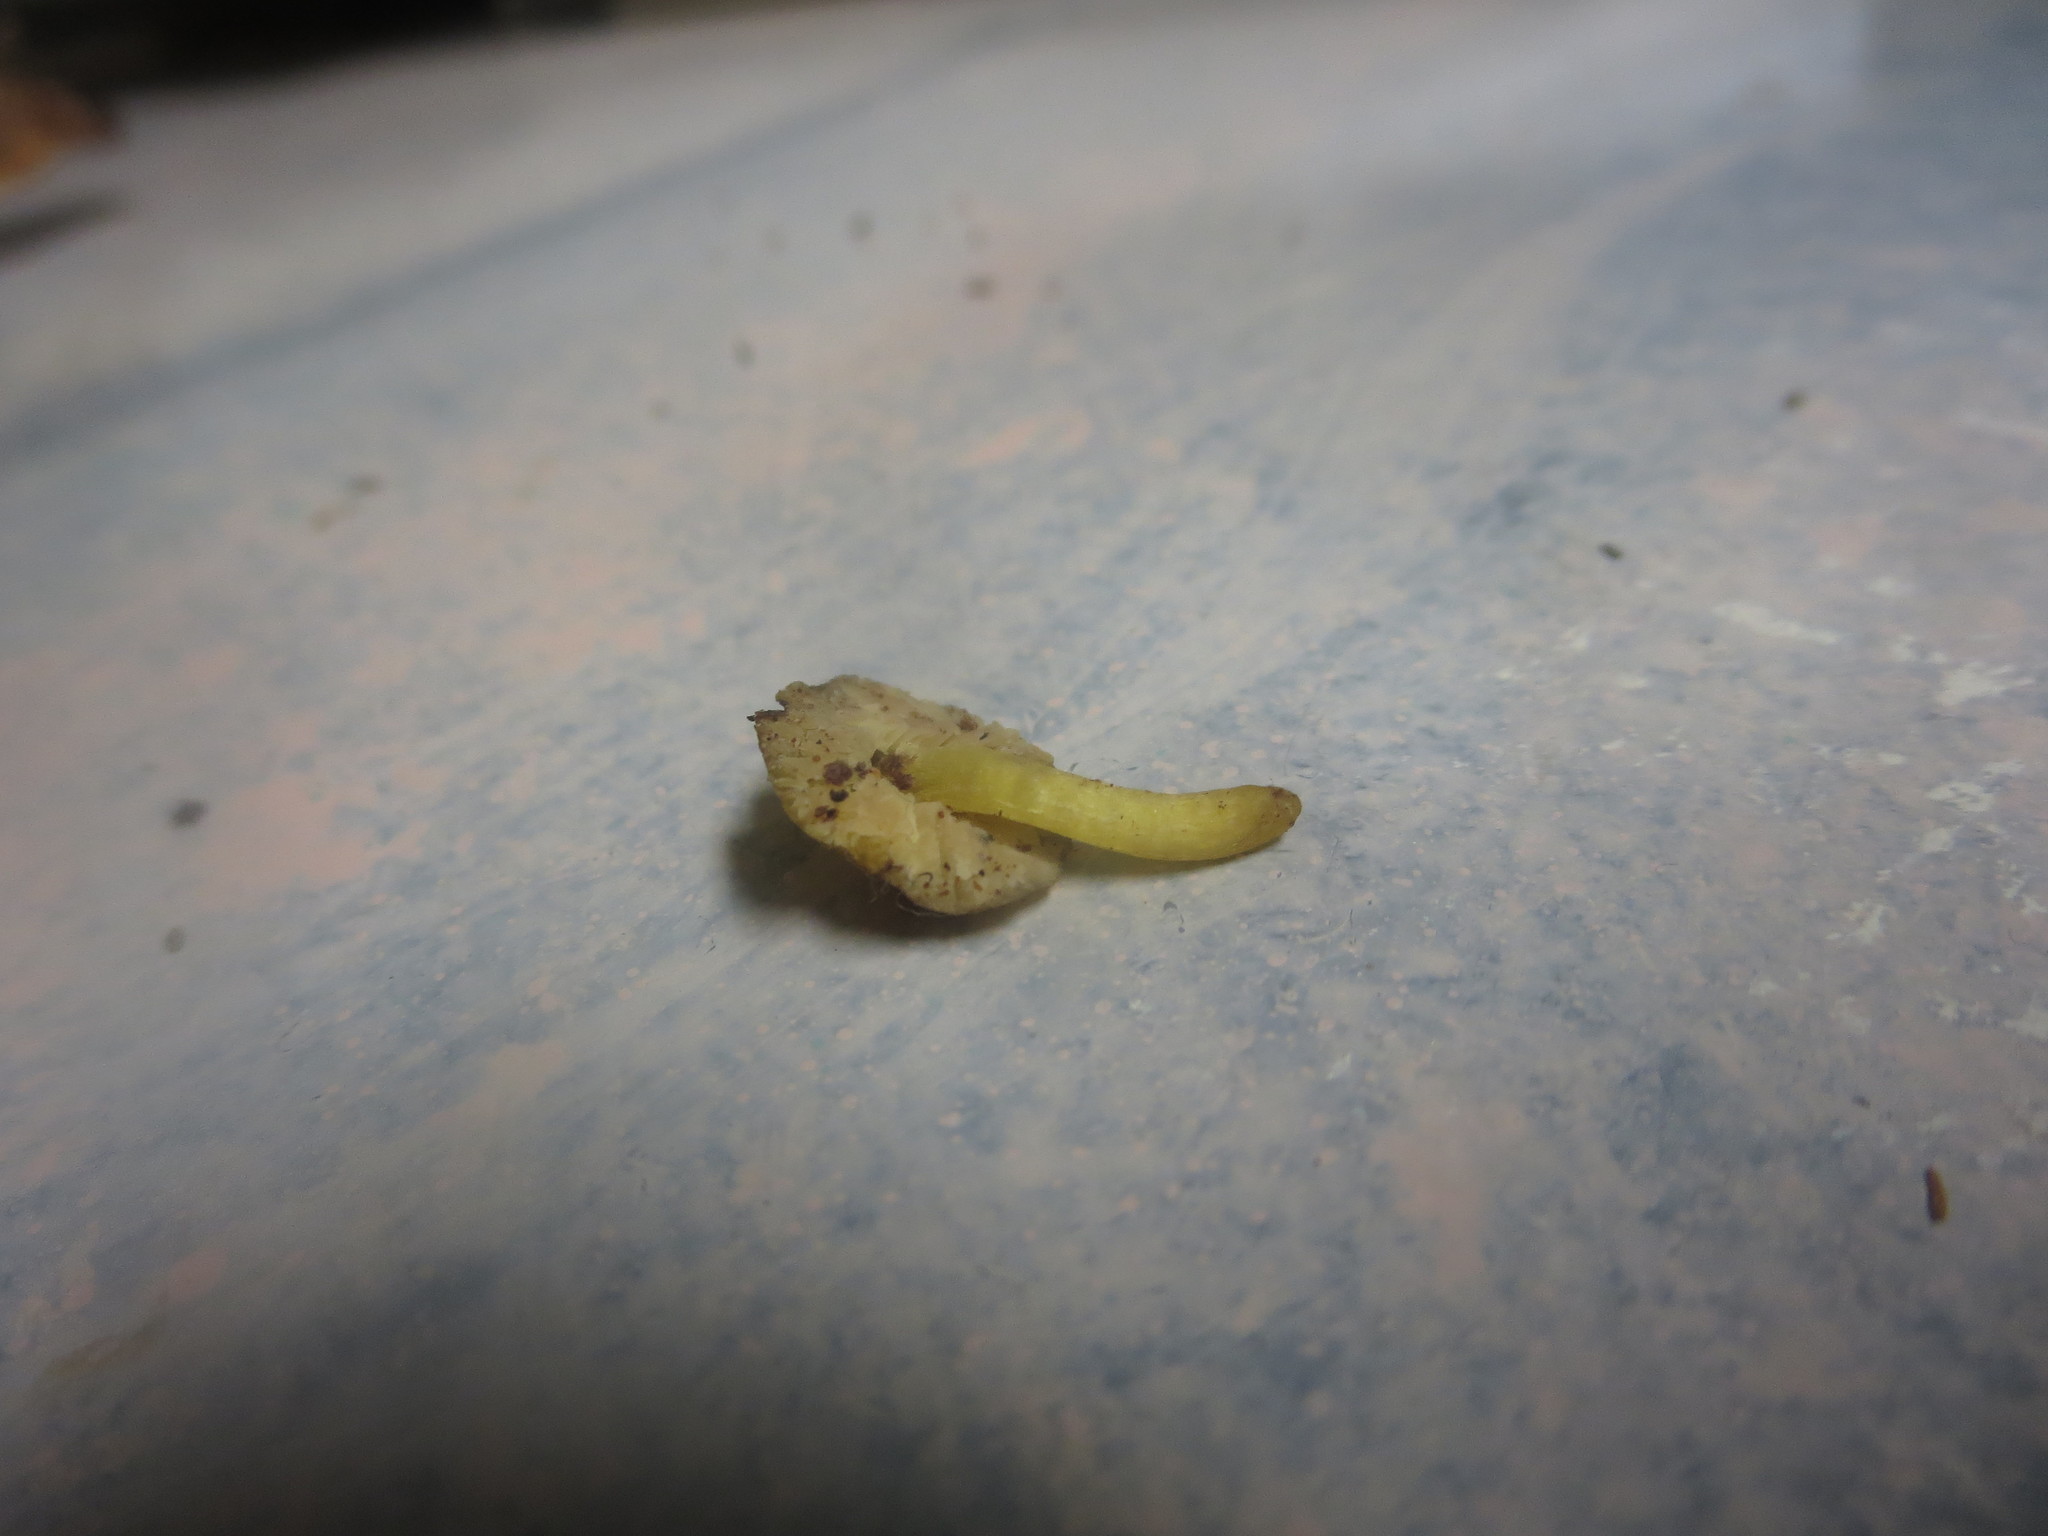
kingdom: Fungi
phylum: Basidiomycota
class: Agaricomycetes
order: Agaricales
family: Pluteaceae
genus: Pluteus
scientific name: Pluteus romellii
